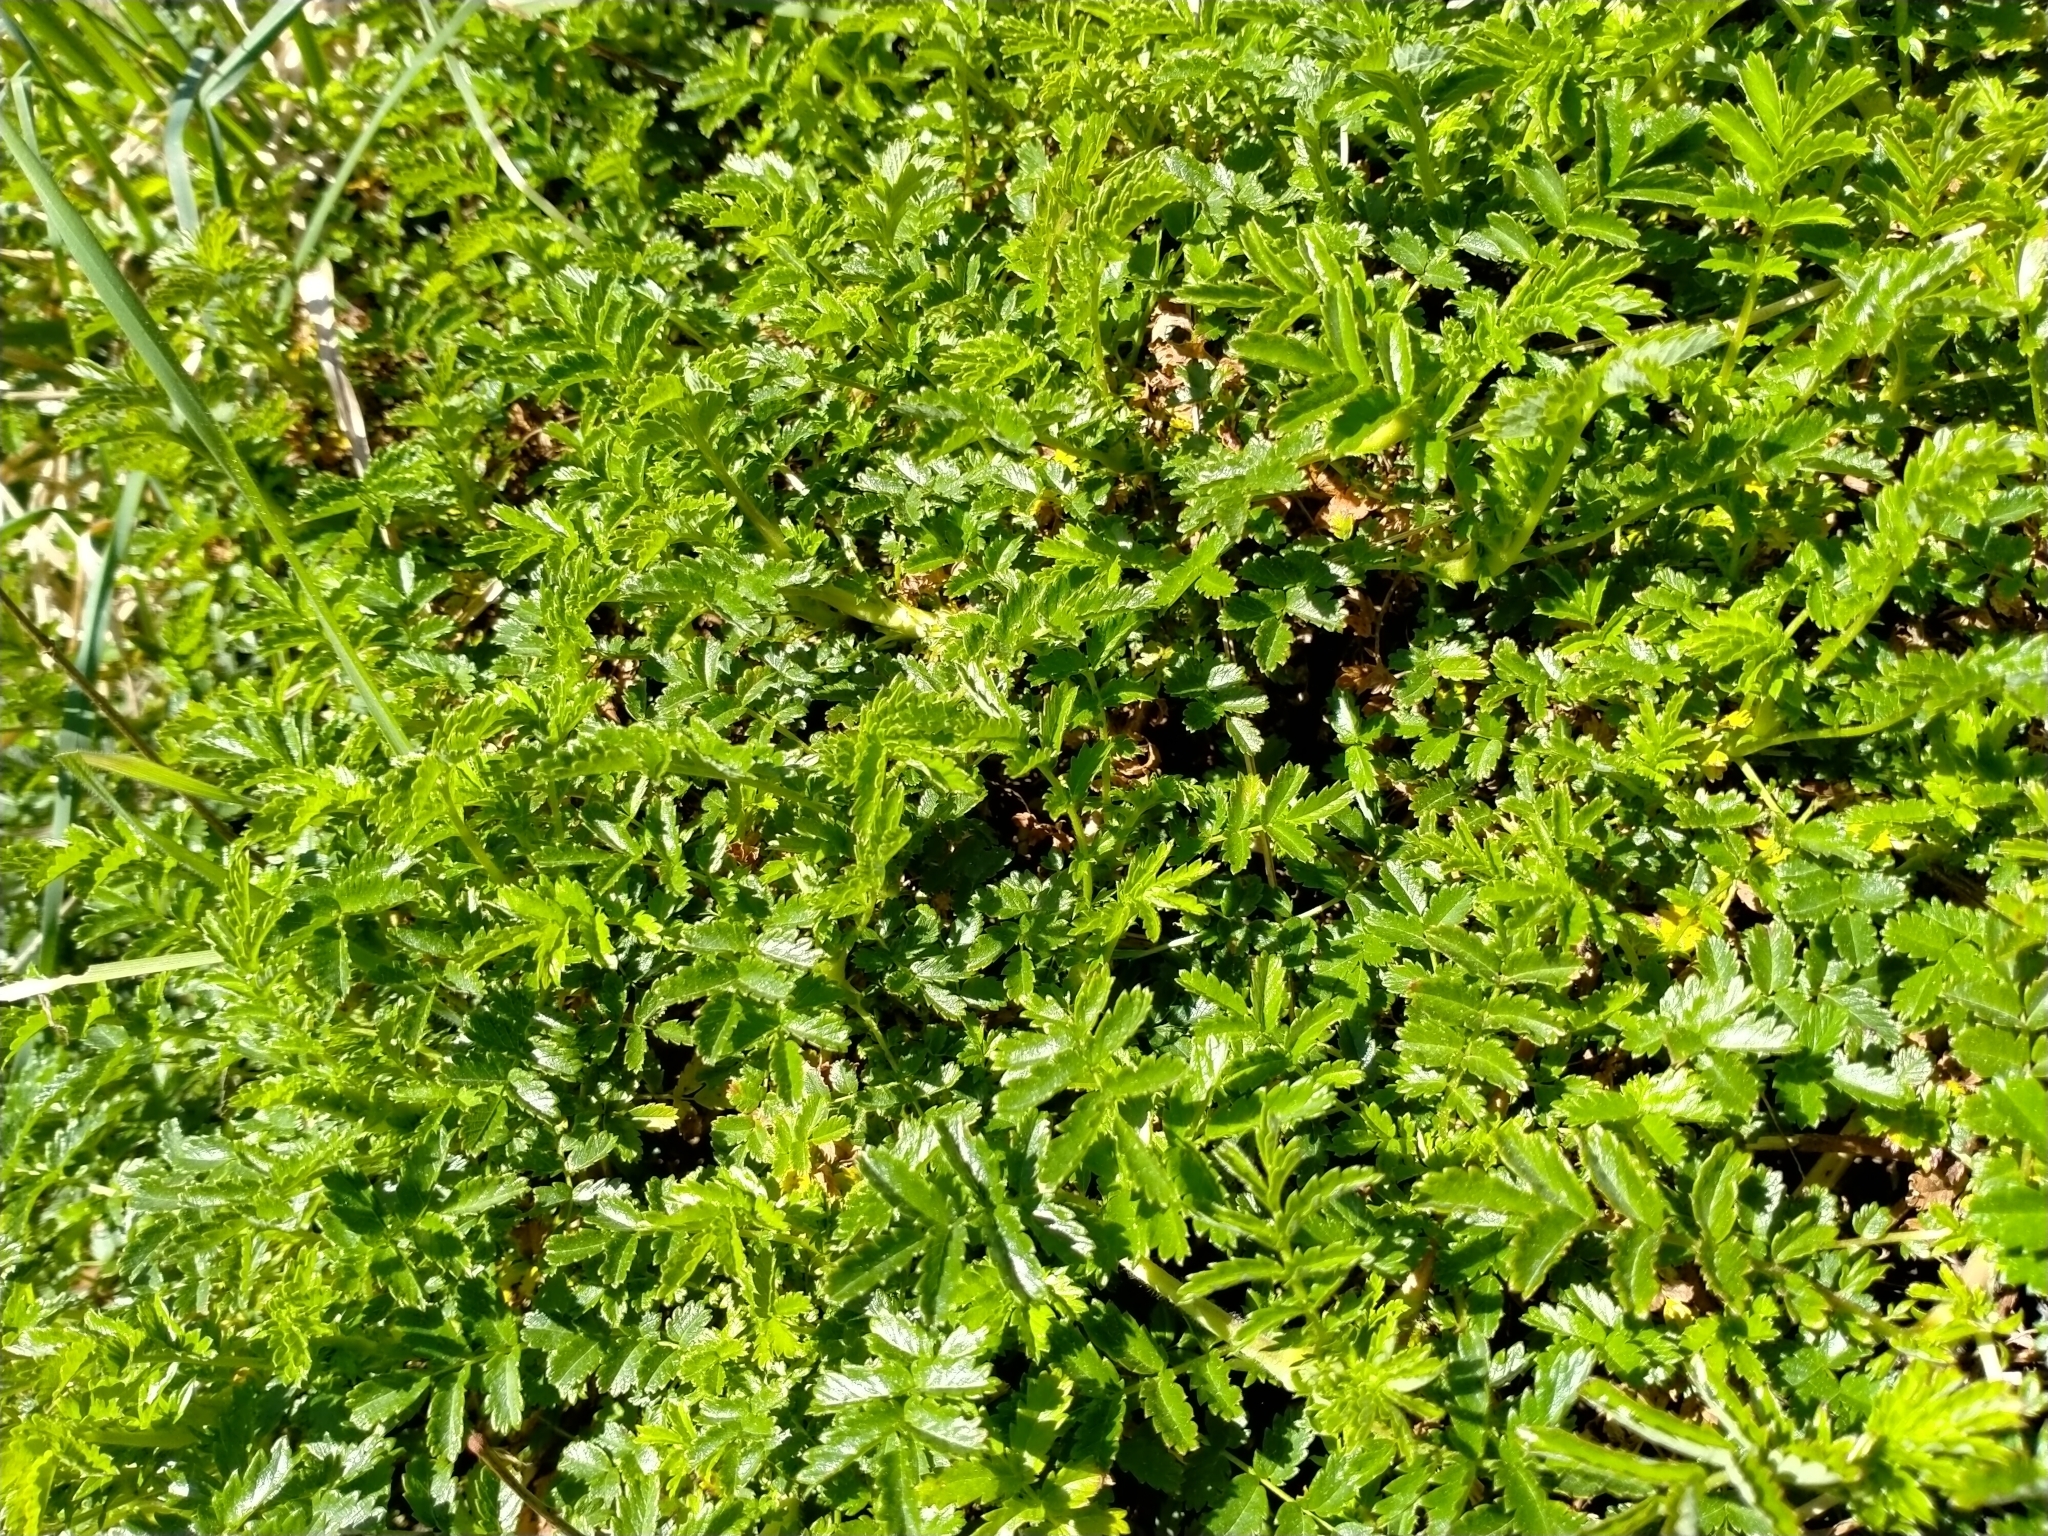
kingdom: Plantae
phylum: Tracheophyta
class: Magnoliopsida
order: Rosales
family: Rosaceae
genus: Acaena
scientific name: Acaena novae-zelandiae
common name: Pirri-pirri-bur
